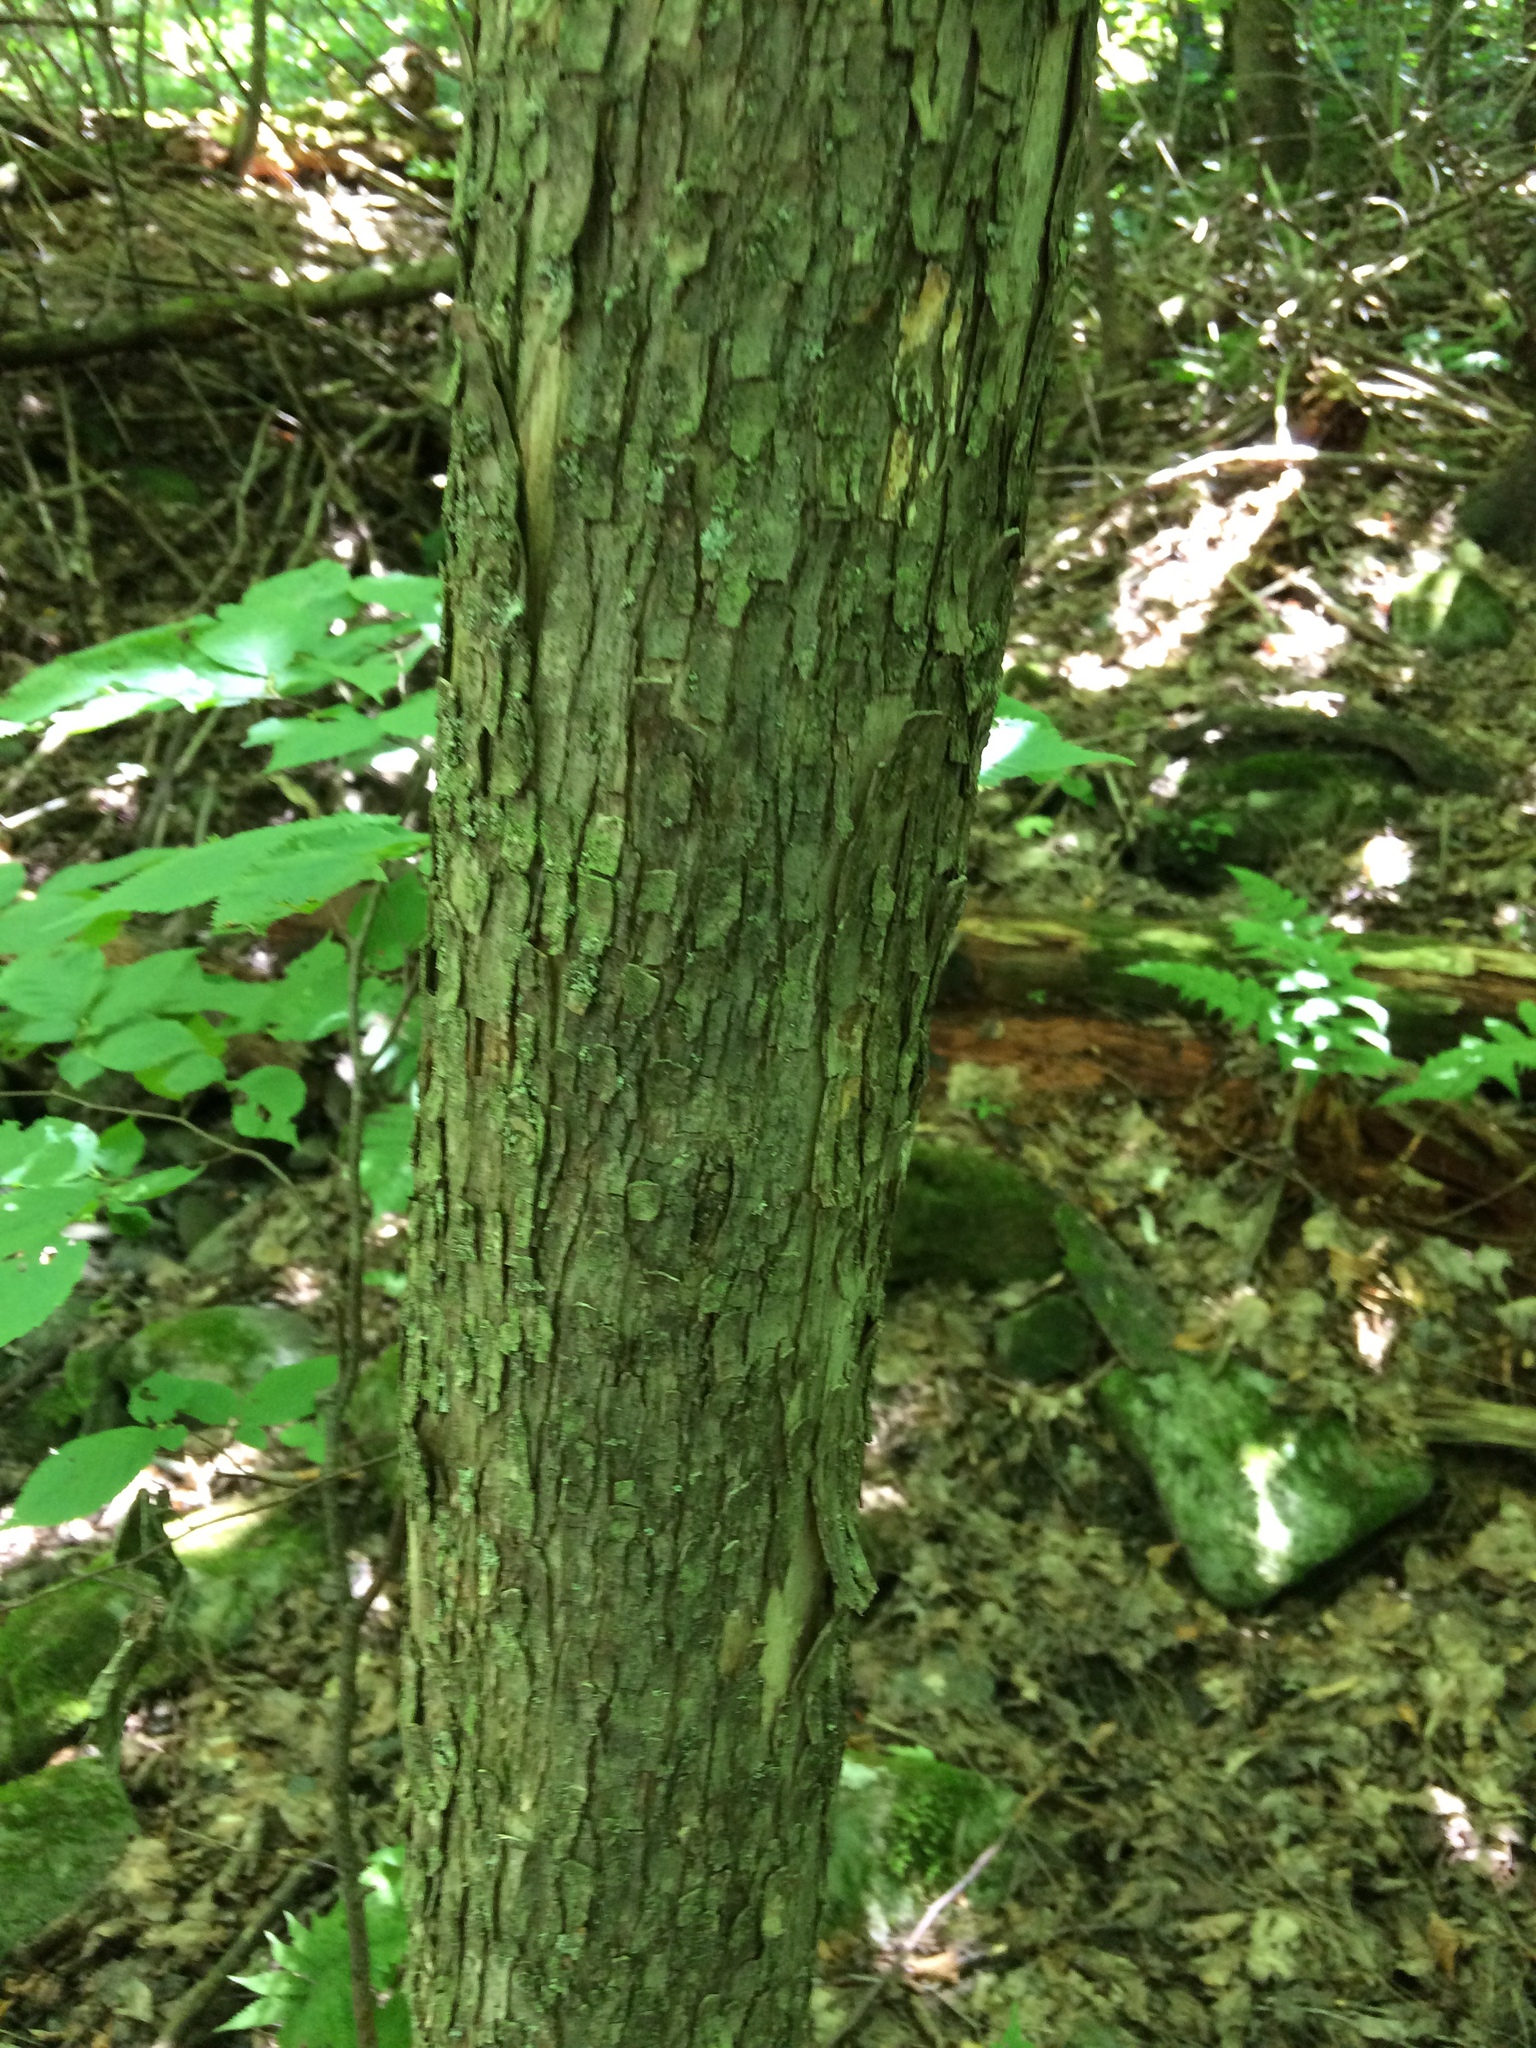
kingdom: Plantae
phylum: Tracheophyta
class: Magnoliopsida
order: Fagales
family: Betulaceae
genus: Ostrya
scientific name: Ostrya virginiana
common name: Ironwood
